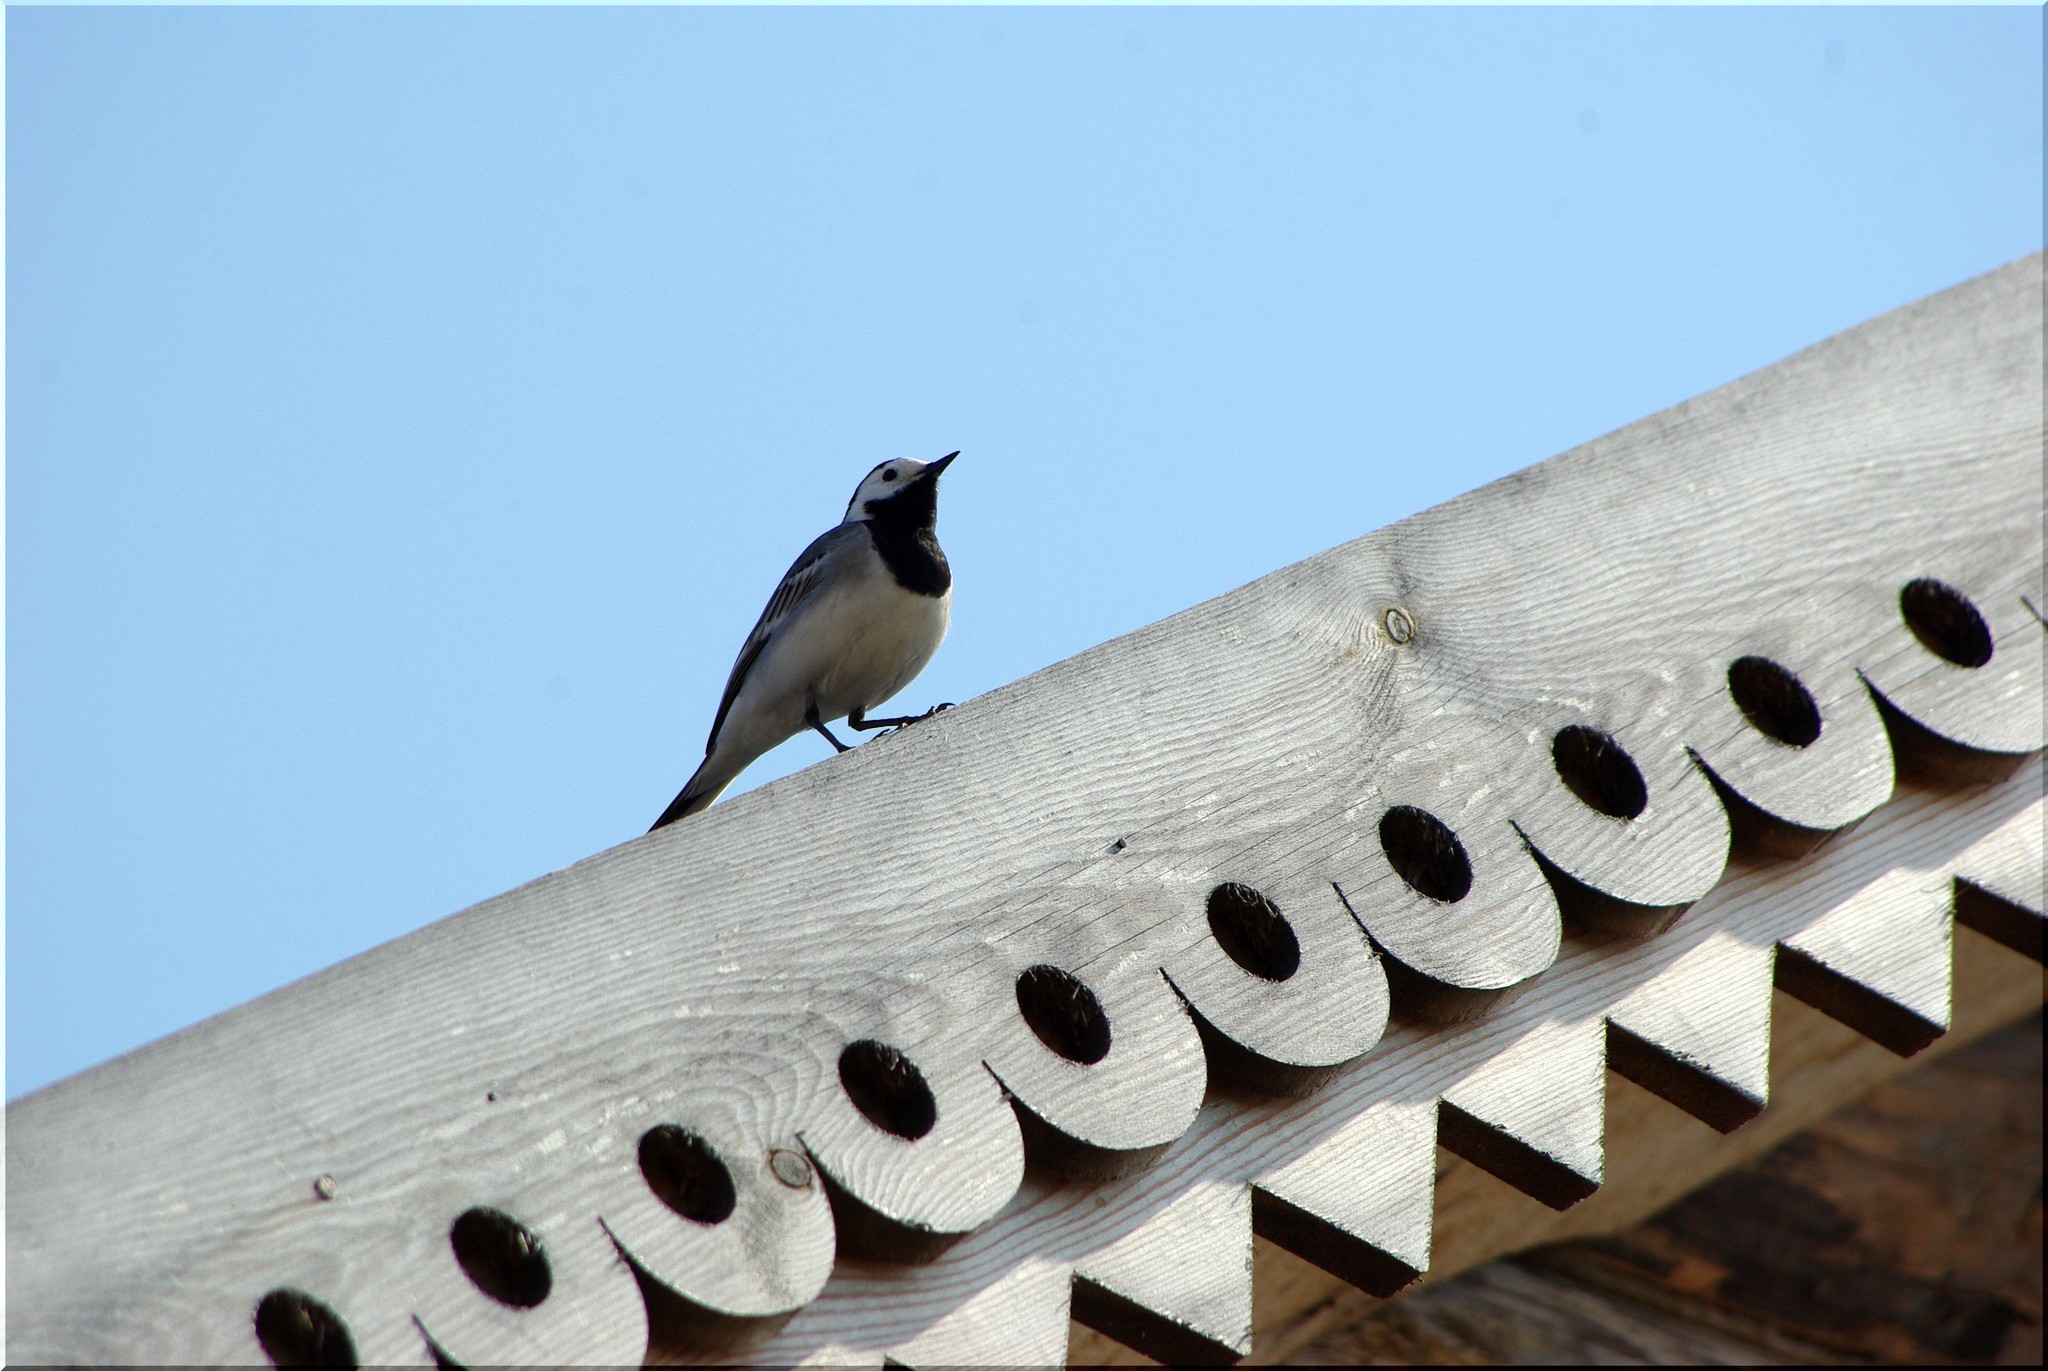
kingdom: Animalia
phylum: Chordata
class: Aves
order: Passeriformes
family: Motacillidae
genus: Motacilla
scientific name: Motacilla alba
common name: White wagtail
